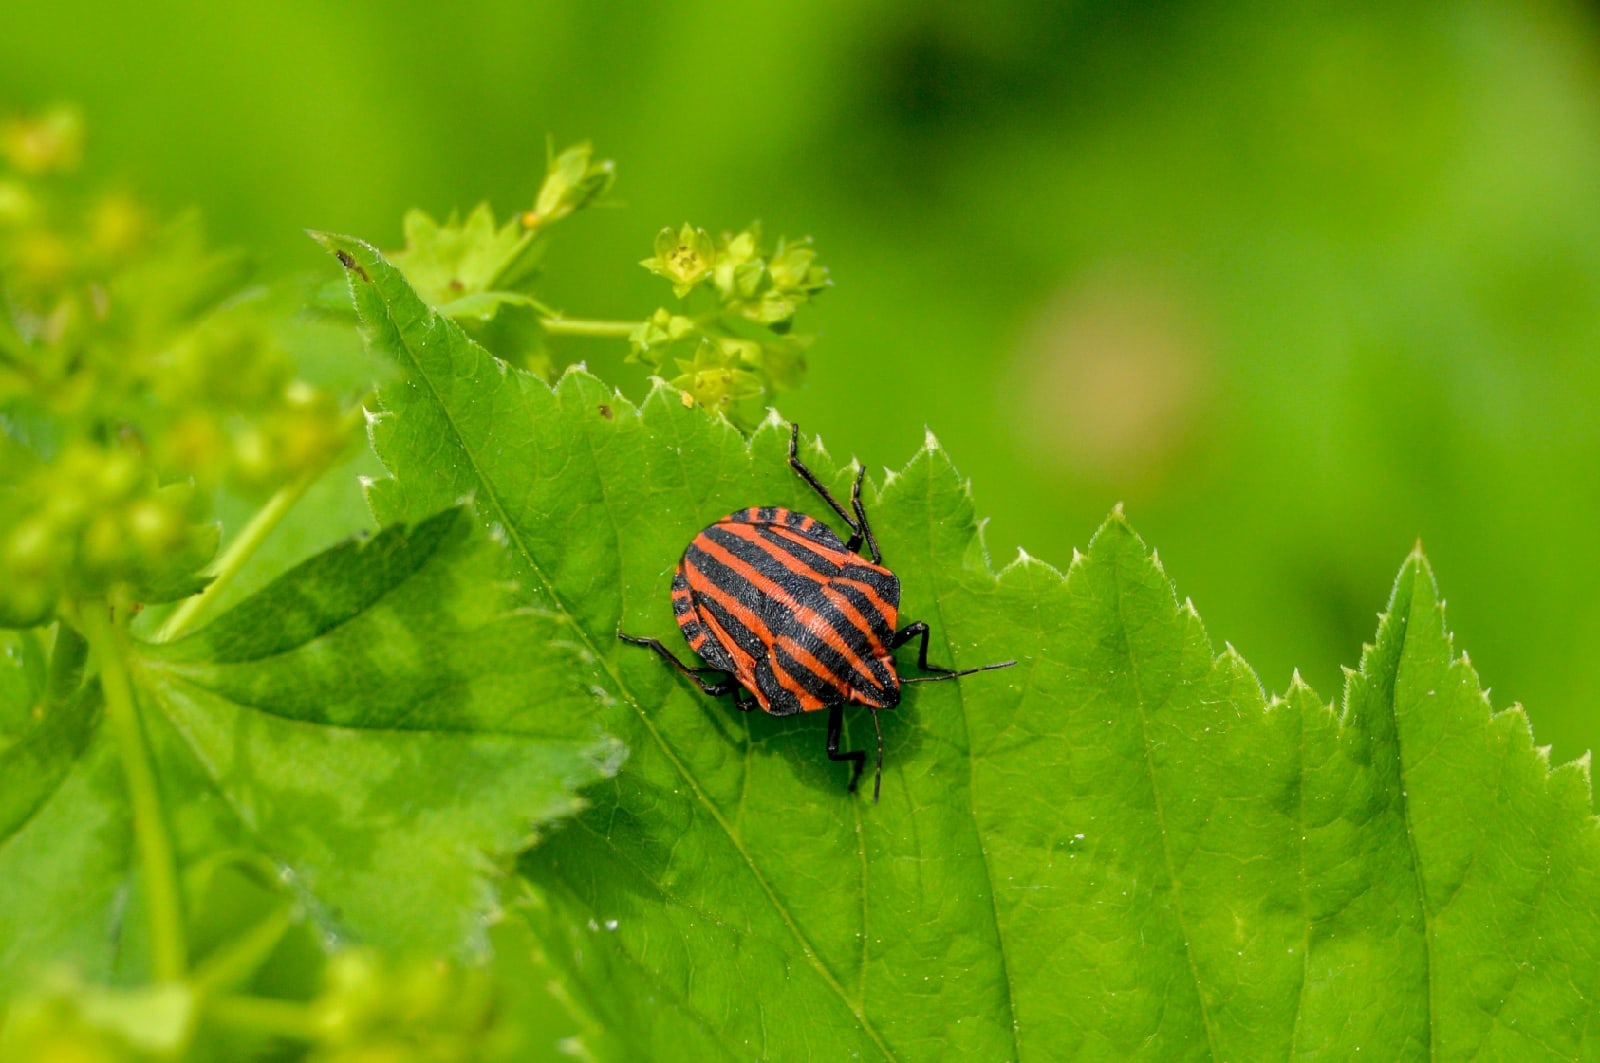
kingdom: Animalia
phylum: Arthropoda
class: Insecta
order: Hemiptera
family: Pentatomidae
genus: Graphosoma
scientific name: Graphosoma italicum
